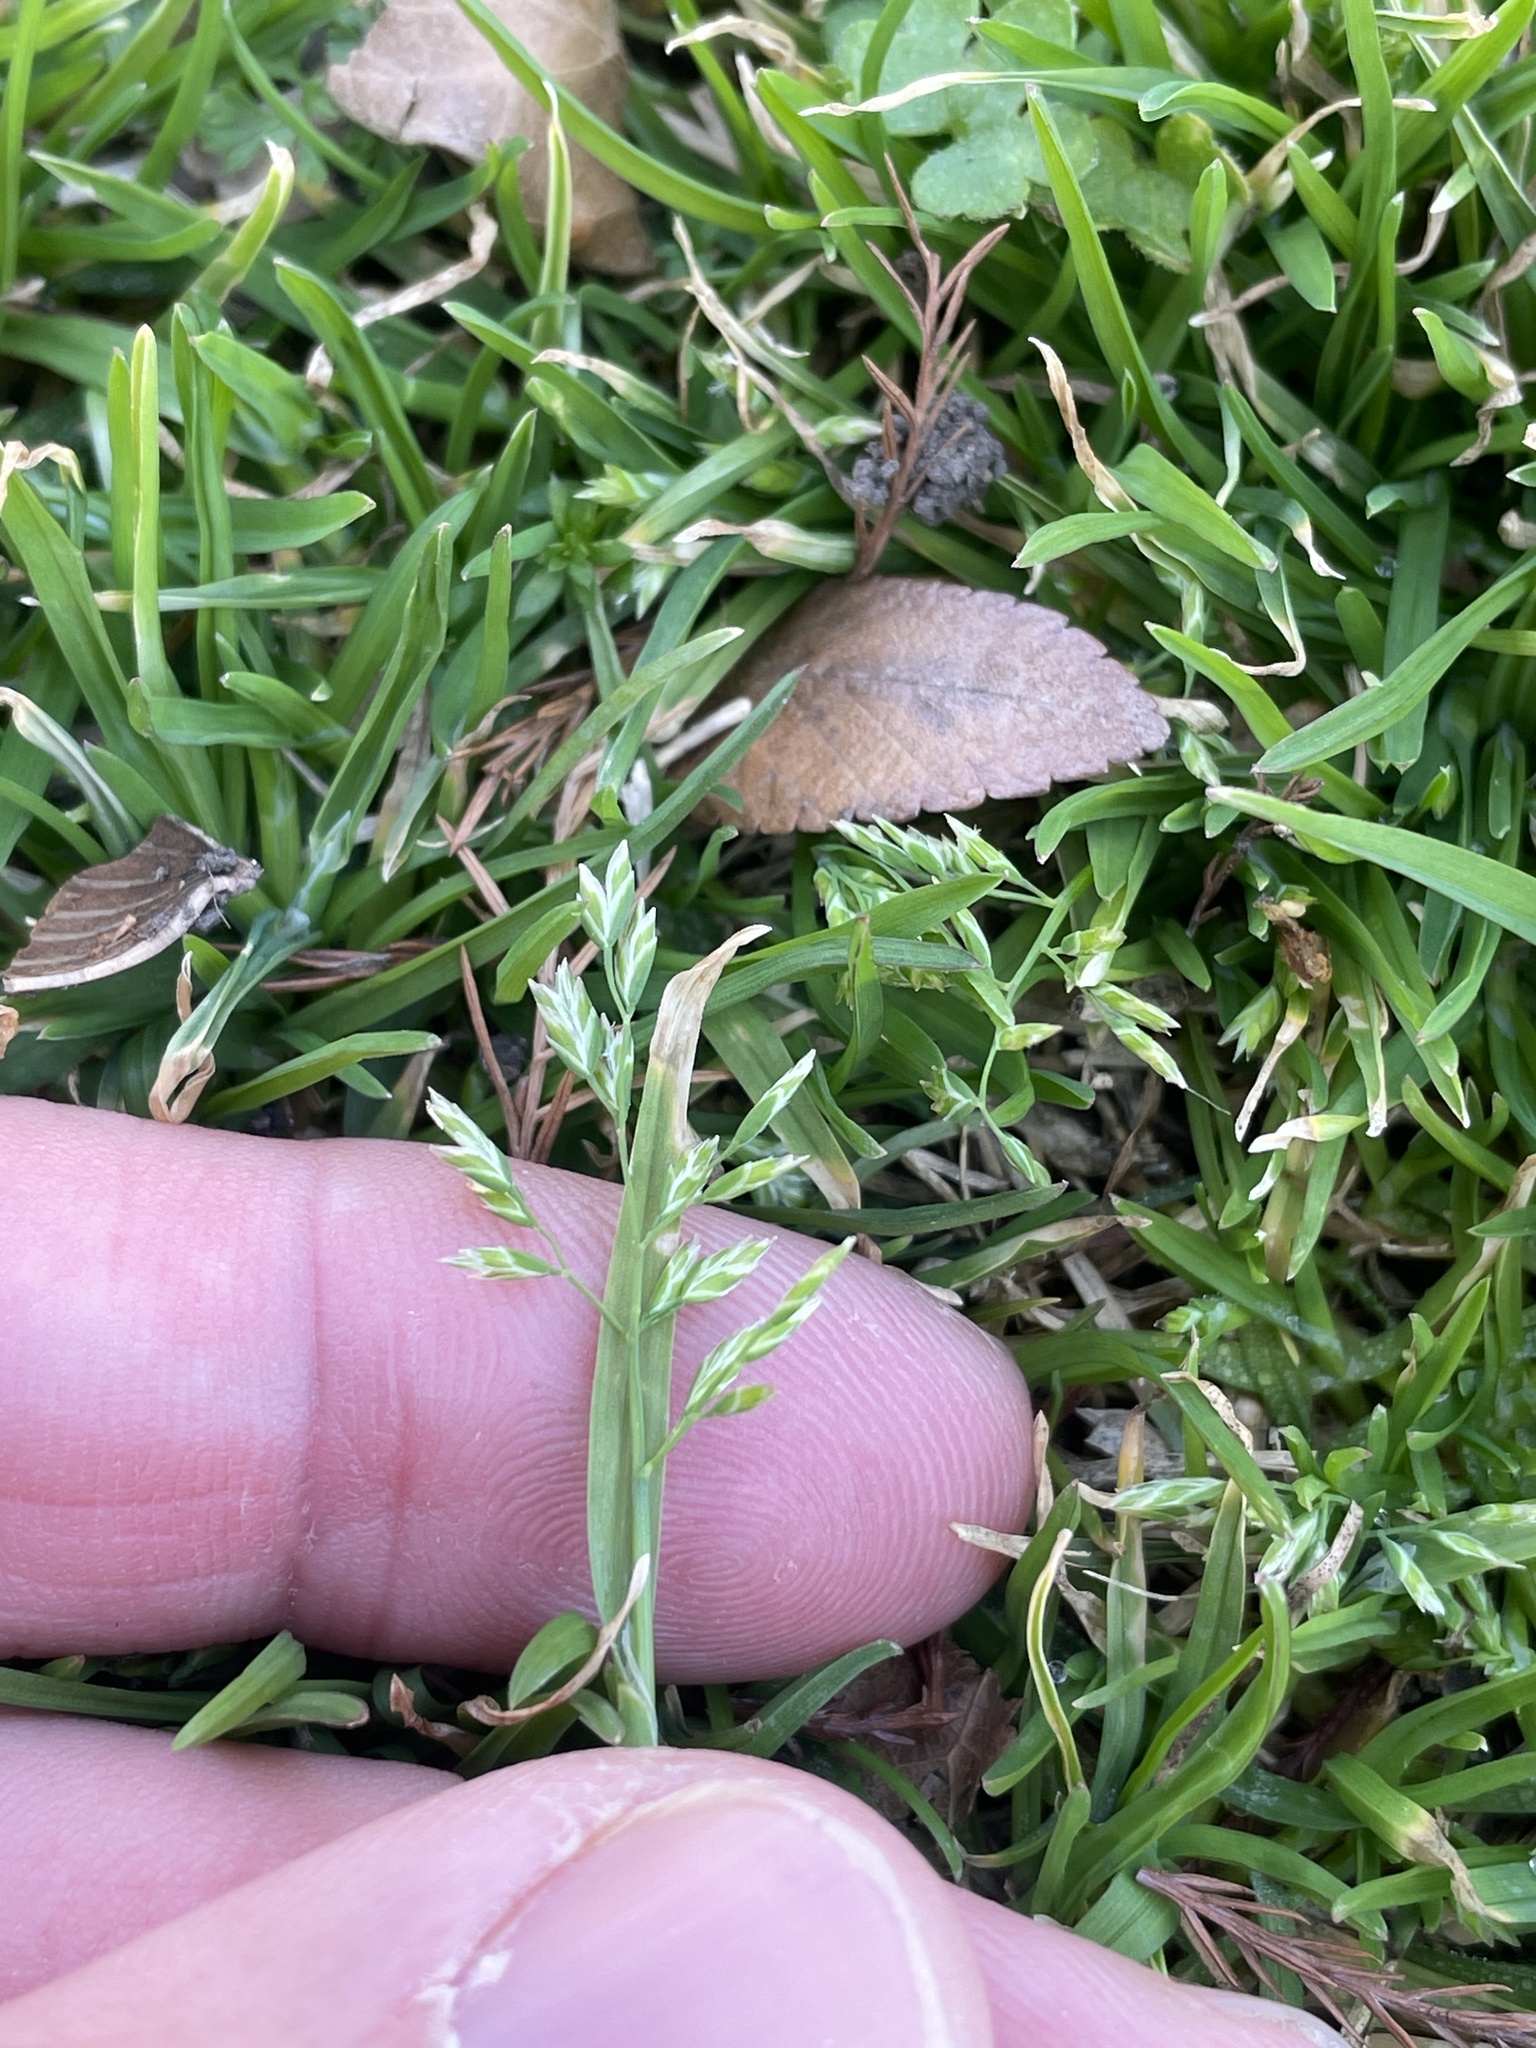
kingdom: Plantae
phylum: Tracheophyta
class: Liliopsida
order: Poales
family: Poaceae
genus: Poa
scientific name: Poa annua
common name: Annual bluegrass
